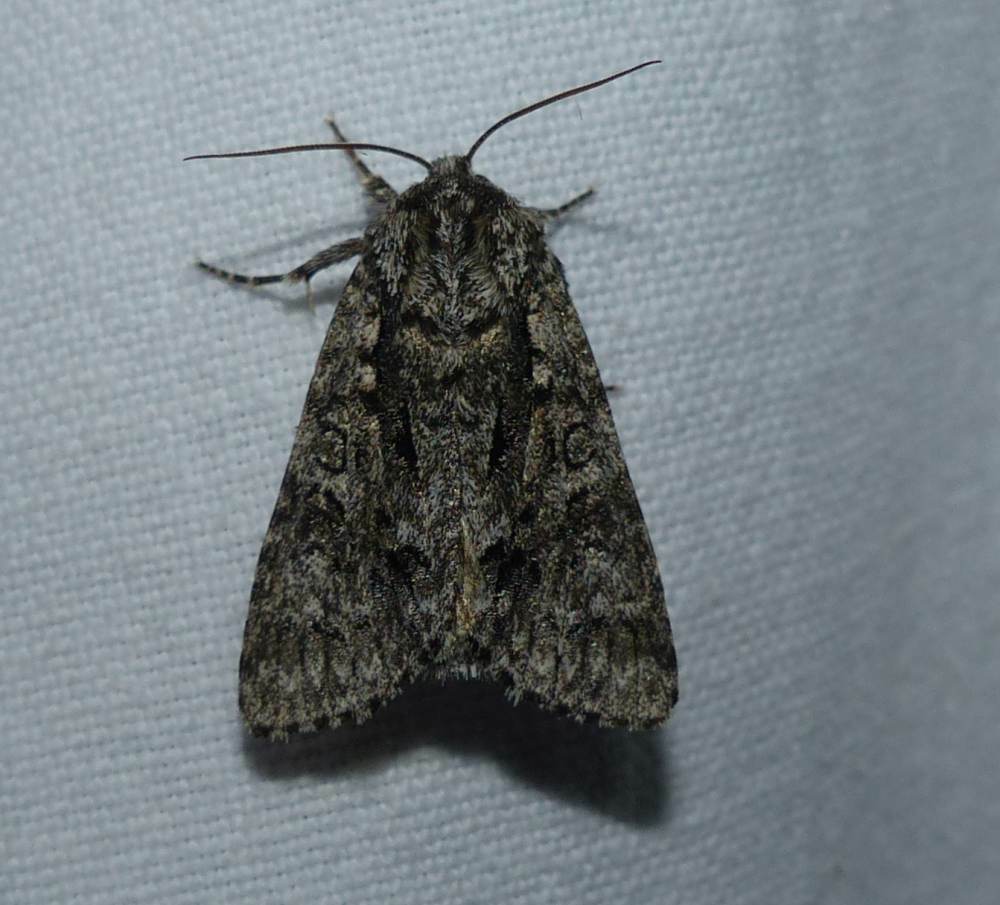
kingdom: Animalia
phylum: Arthropoda
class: Insecta
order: Lepidoptera
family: Noctuidae
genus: Acronicta
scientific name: Acronicta impressa
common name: Impressed dagger
